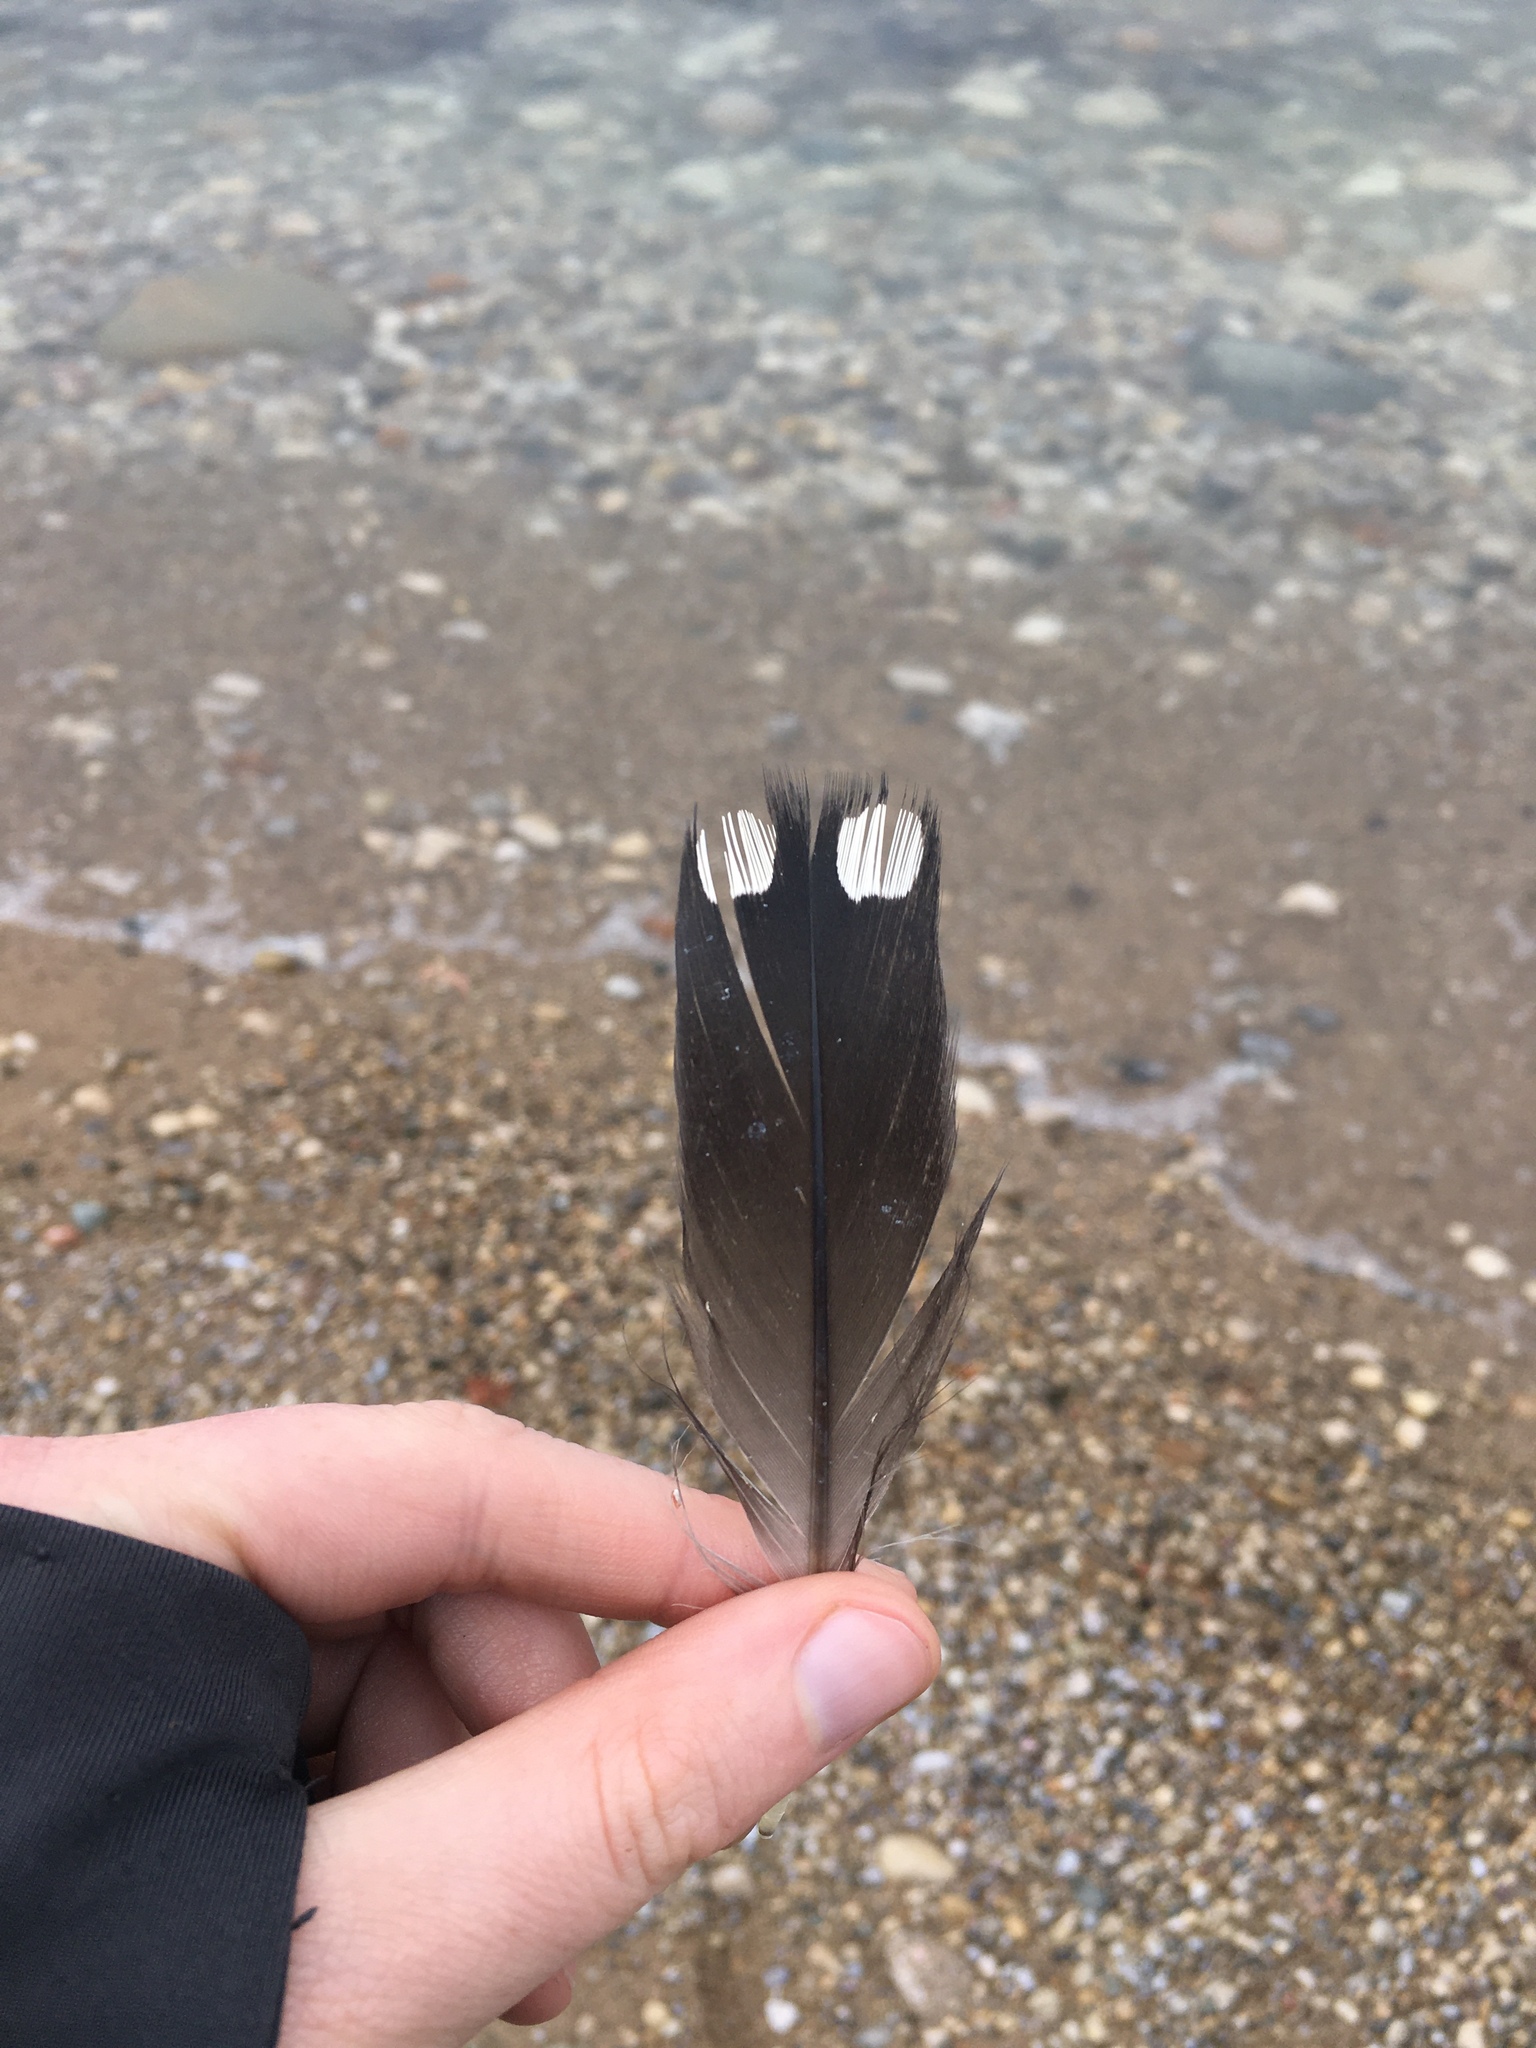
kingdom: Animalia
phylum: Chordata
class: Aves
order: Gaviiformes
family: Gaviidae
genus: Gavia
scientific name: Gavia immer
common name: Common loon
